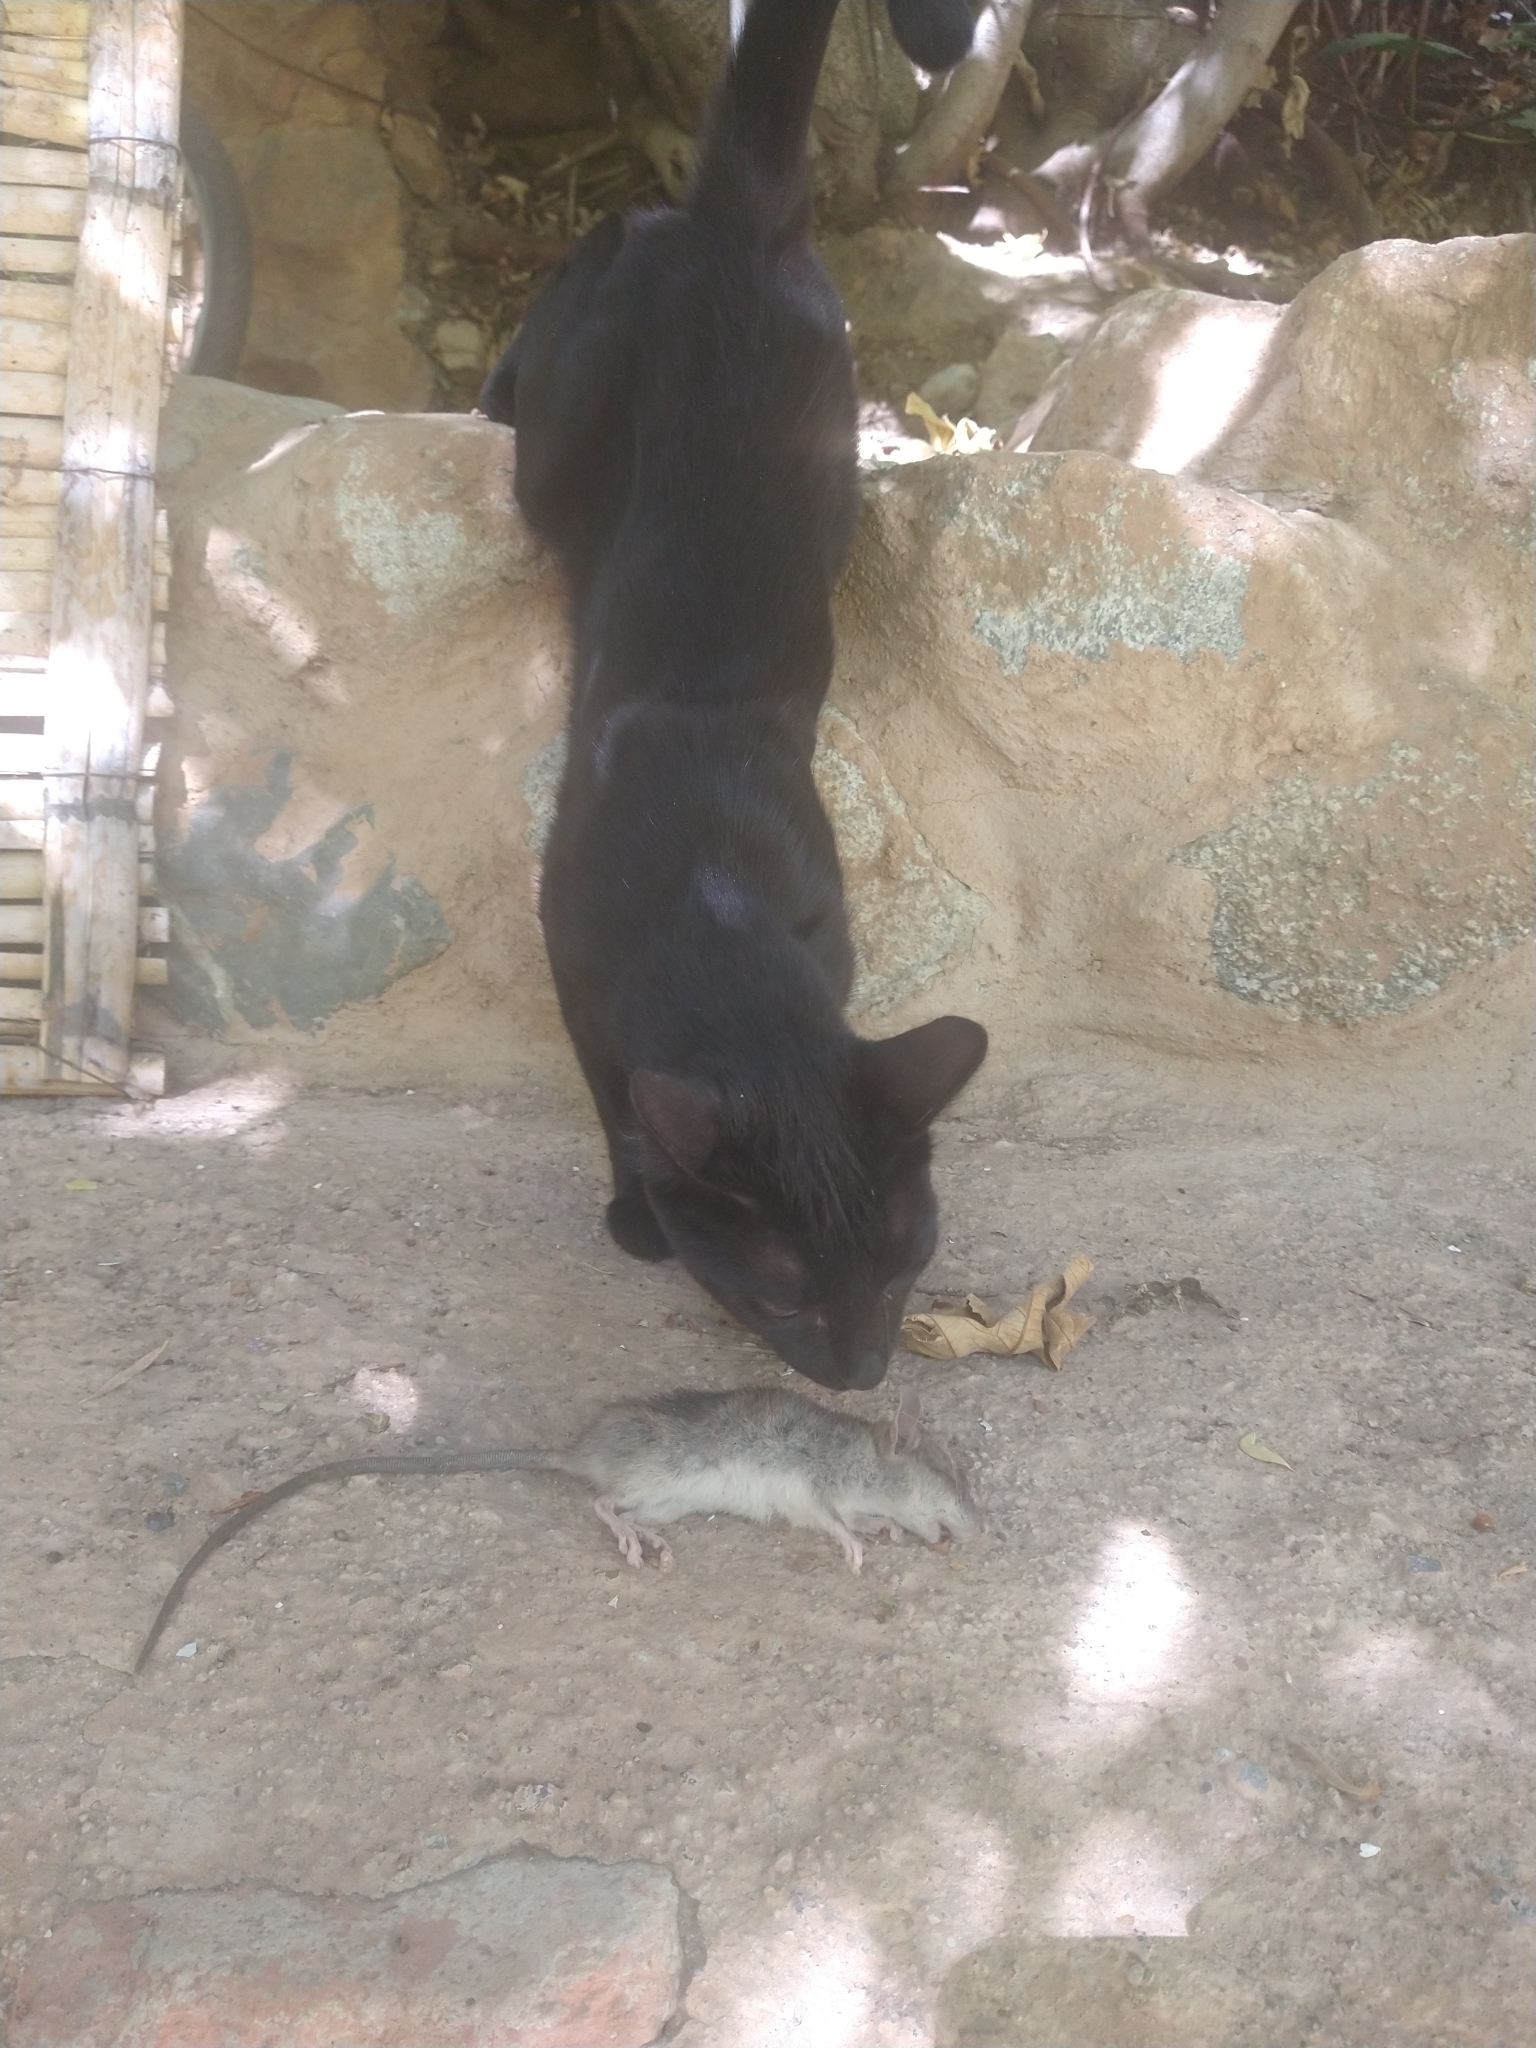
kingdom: Animalia
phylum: Chordata
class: Mammalia
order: Rodentia
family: Muridae
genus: Rattus
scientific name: Rattus rattus
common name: Black rat
